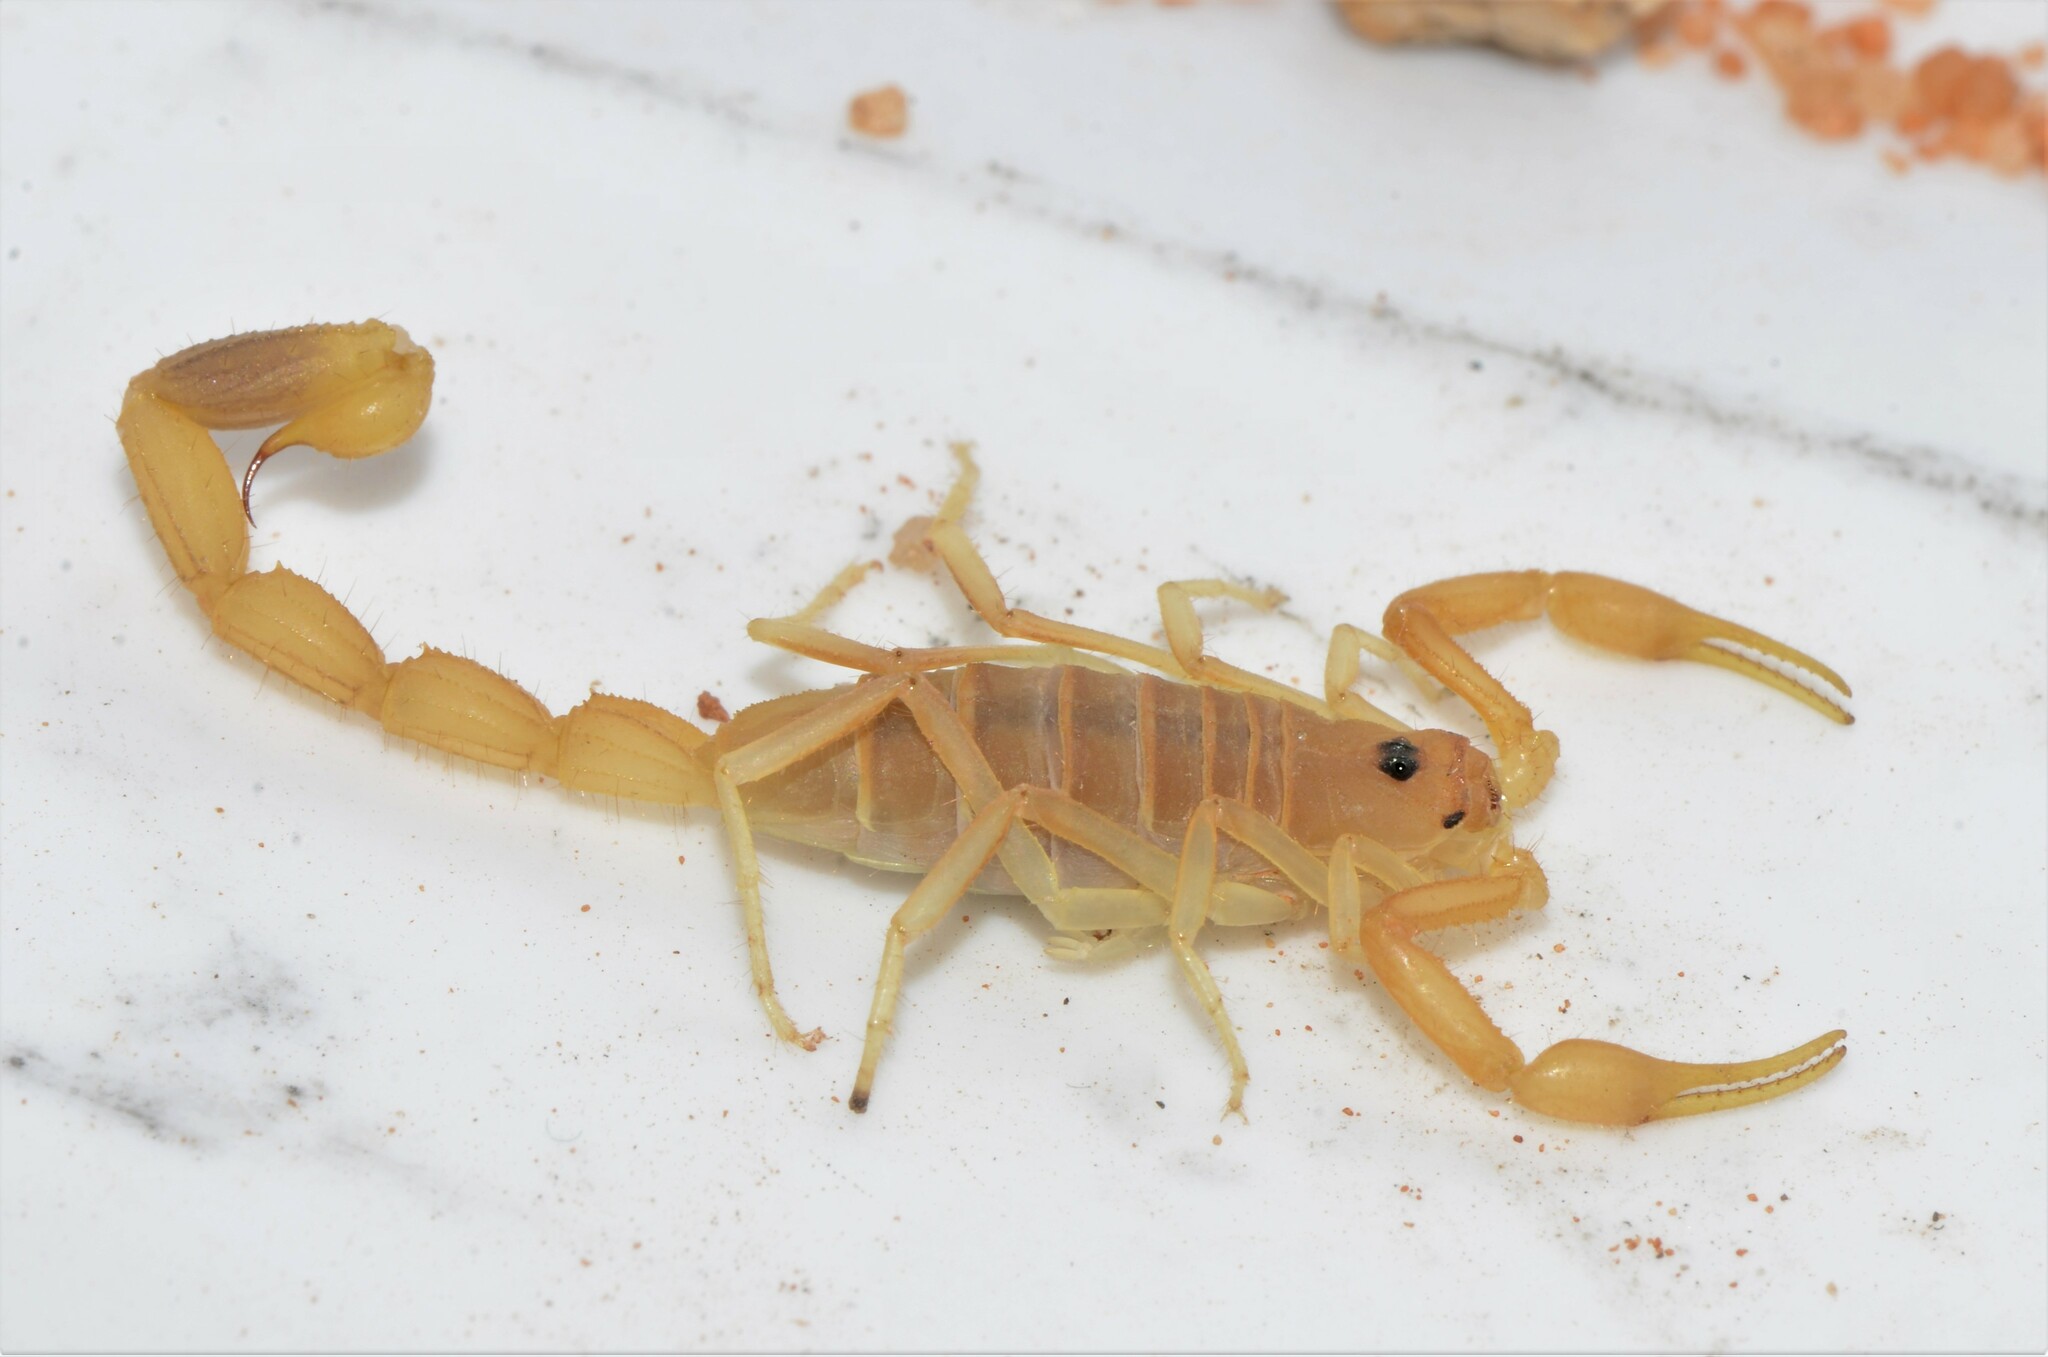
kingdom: Animalia
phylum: Arthropoda
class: Arachnida
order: Scorpiones
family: Buthidae
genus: Uroplectes
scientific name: Uroplectes gracilior
